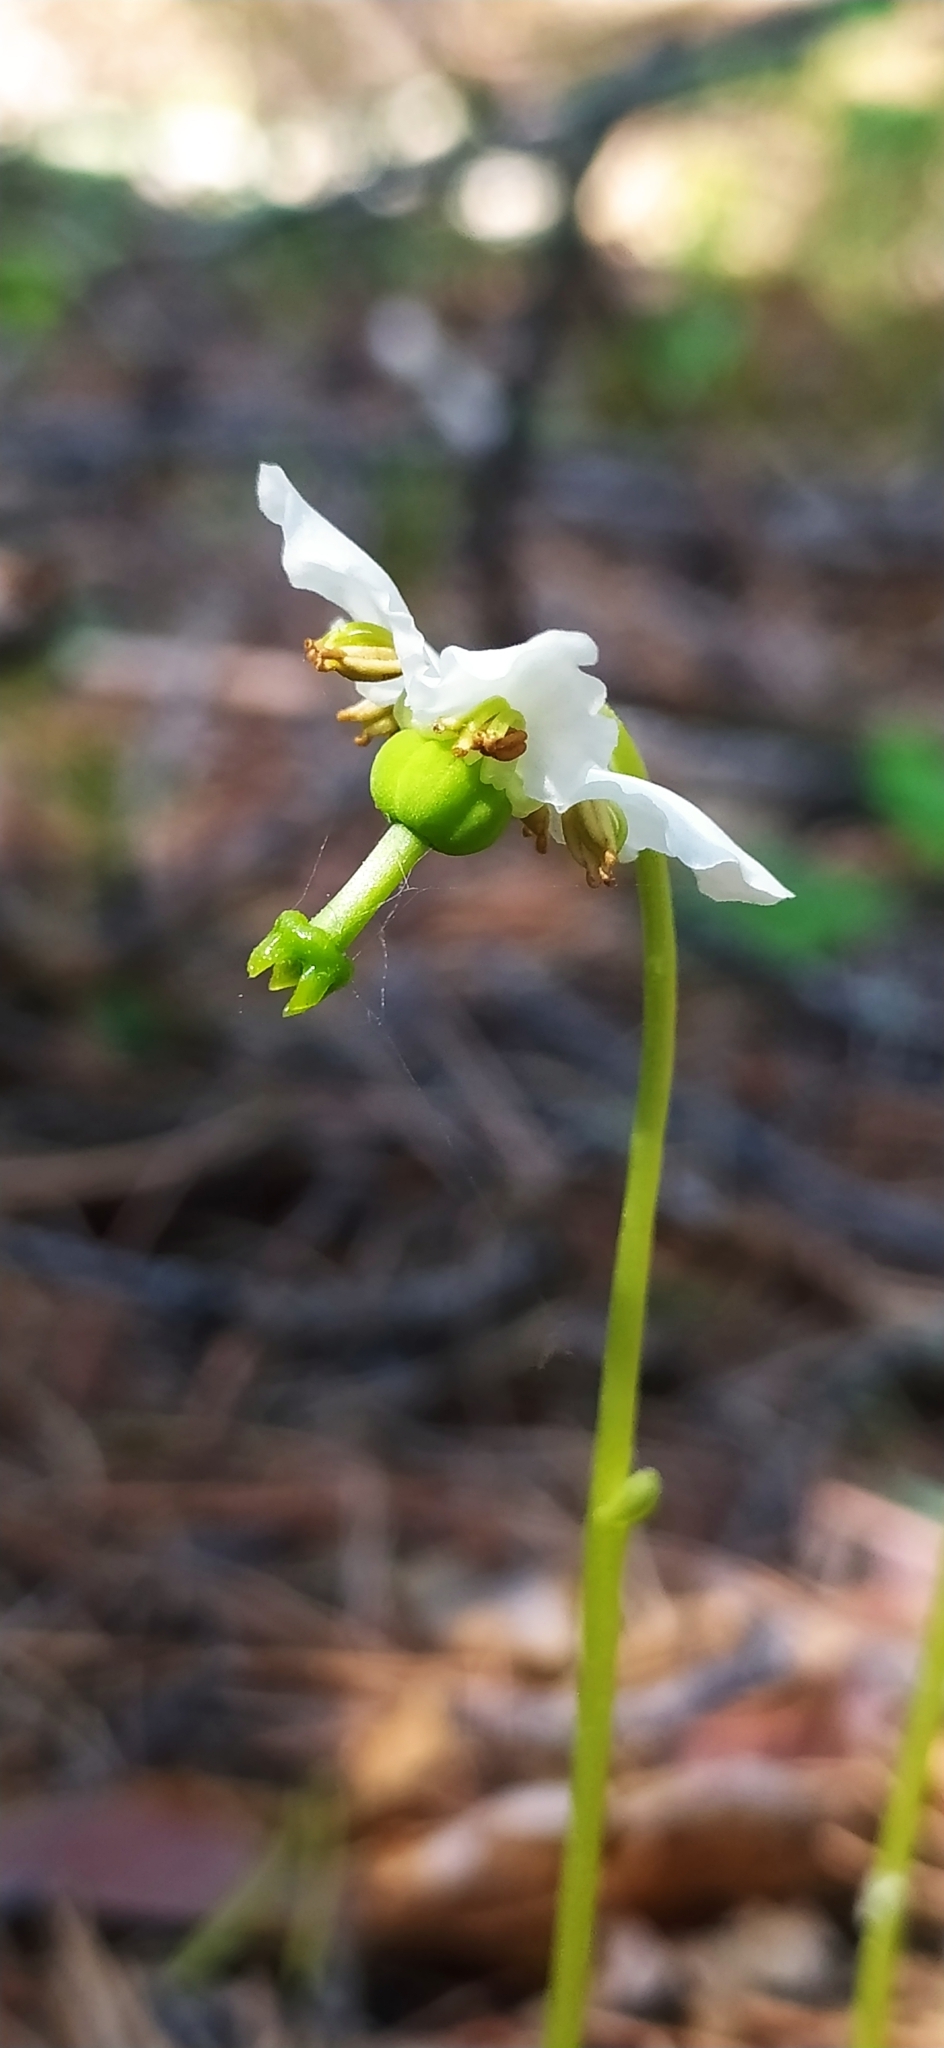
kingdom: Plantae
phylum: Tracheophyta
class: Magnoliopsida
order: Ericales
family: Ericaceae
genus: Moneses
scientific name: Moneses uniflora
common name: One-flowered wintergreen
